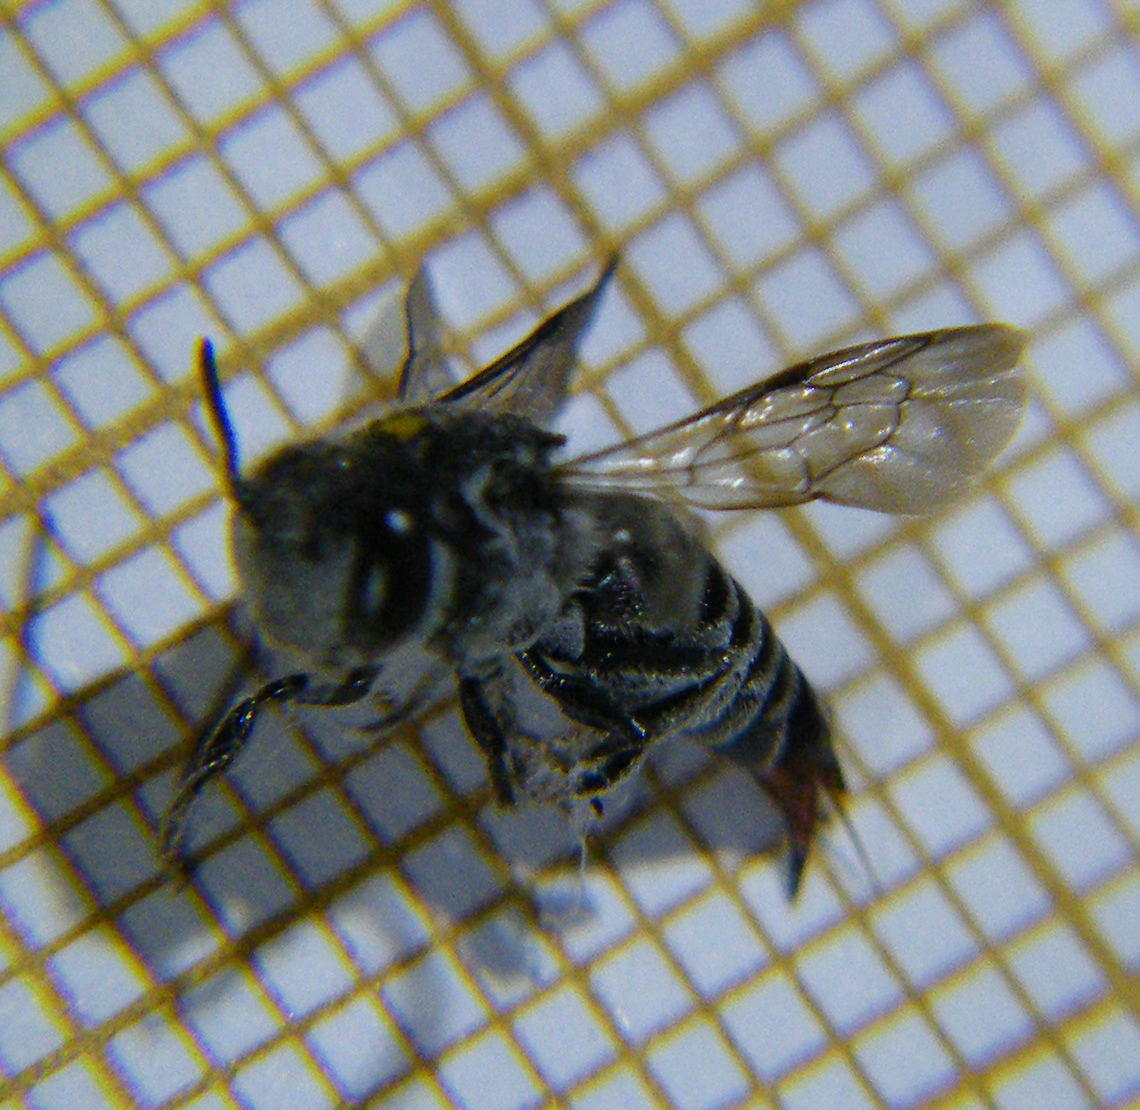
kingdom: Animalia
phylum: Arthropoda
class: Insecta
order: Hymenoptera
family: Megachilidae
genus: Coelioxys
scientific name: Coelioxys echinatus
